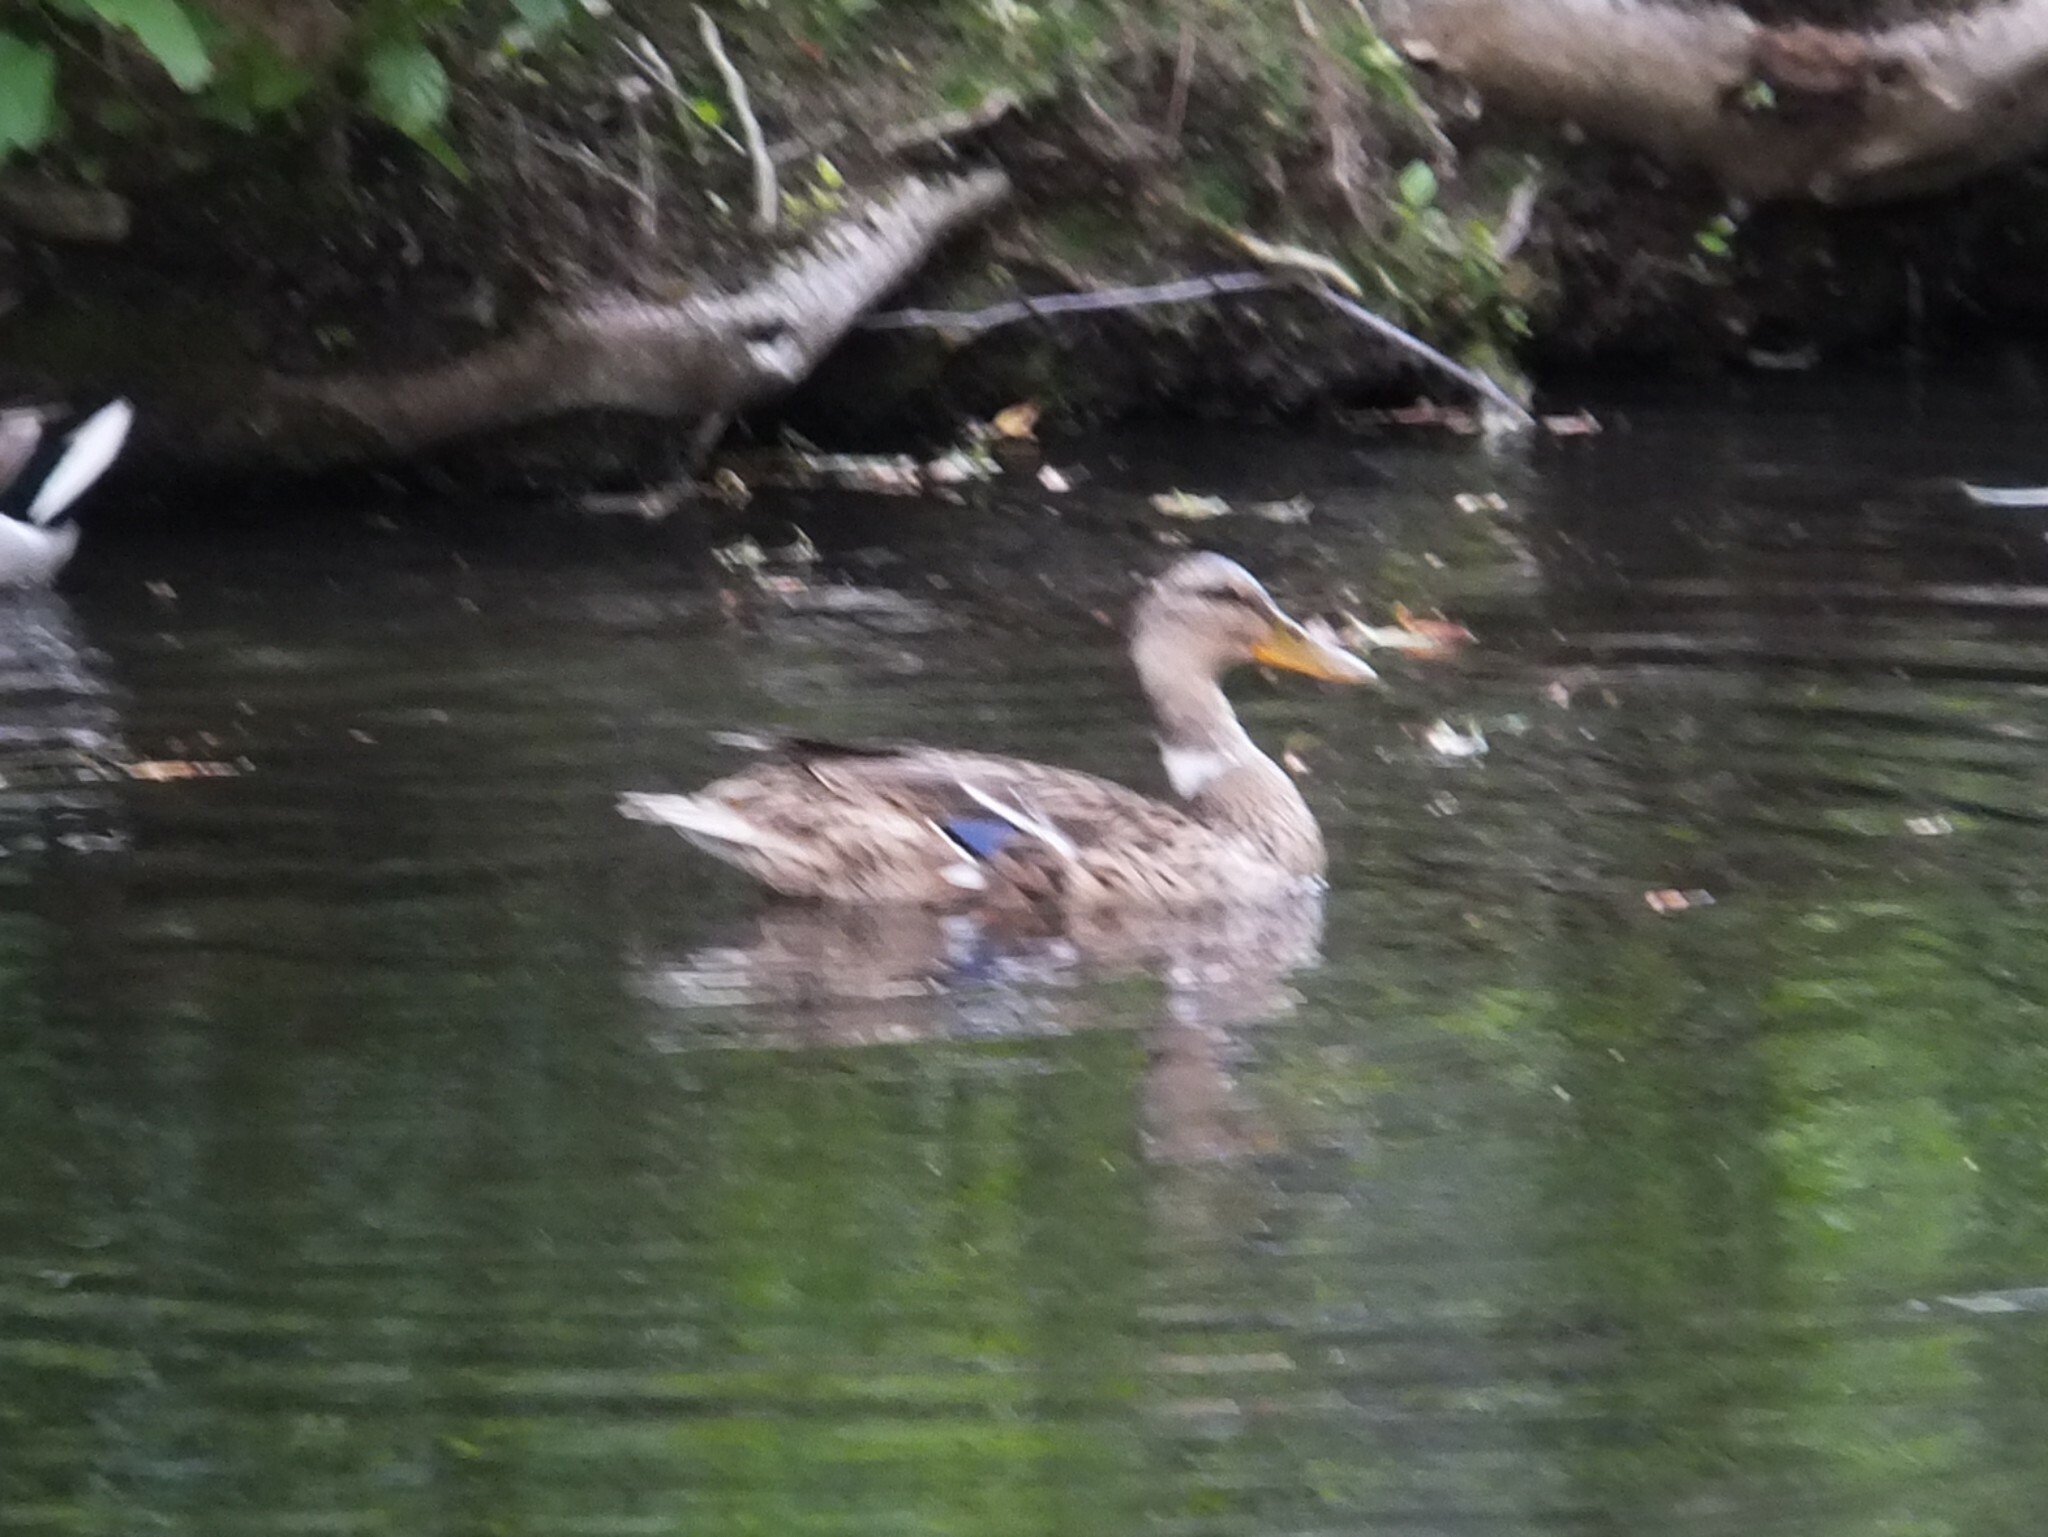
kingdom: Animalia
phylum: Chordata
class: Aves
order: Anseriformes
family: Anatidae
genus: Anas
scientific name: Anas platyrhynchos
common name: Mallard
